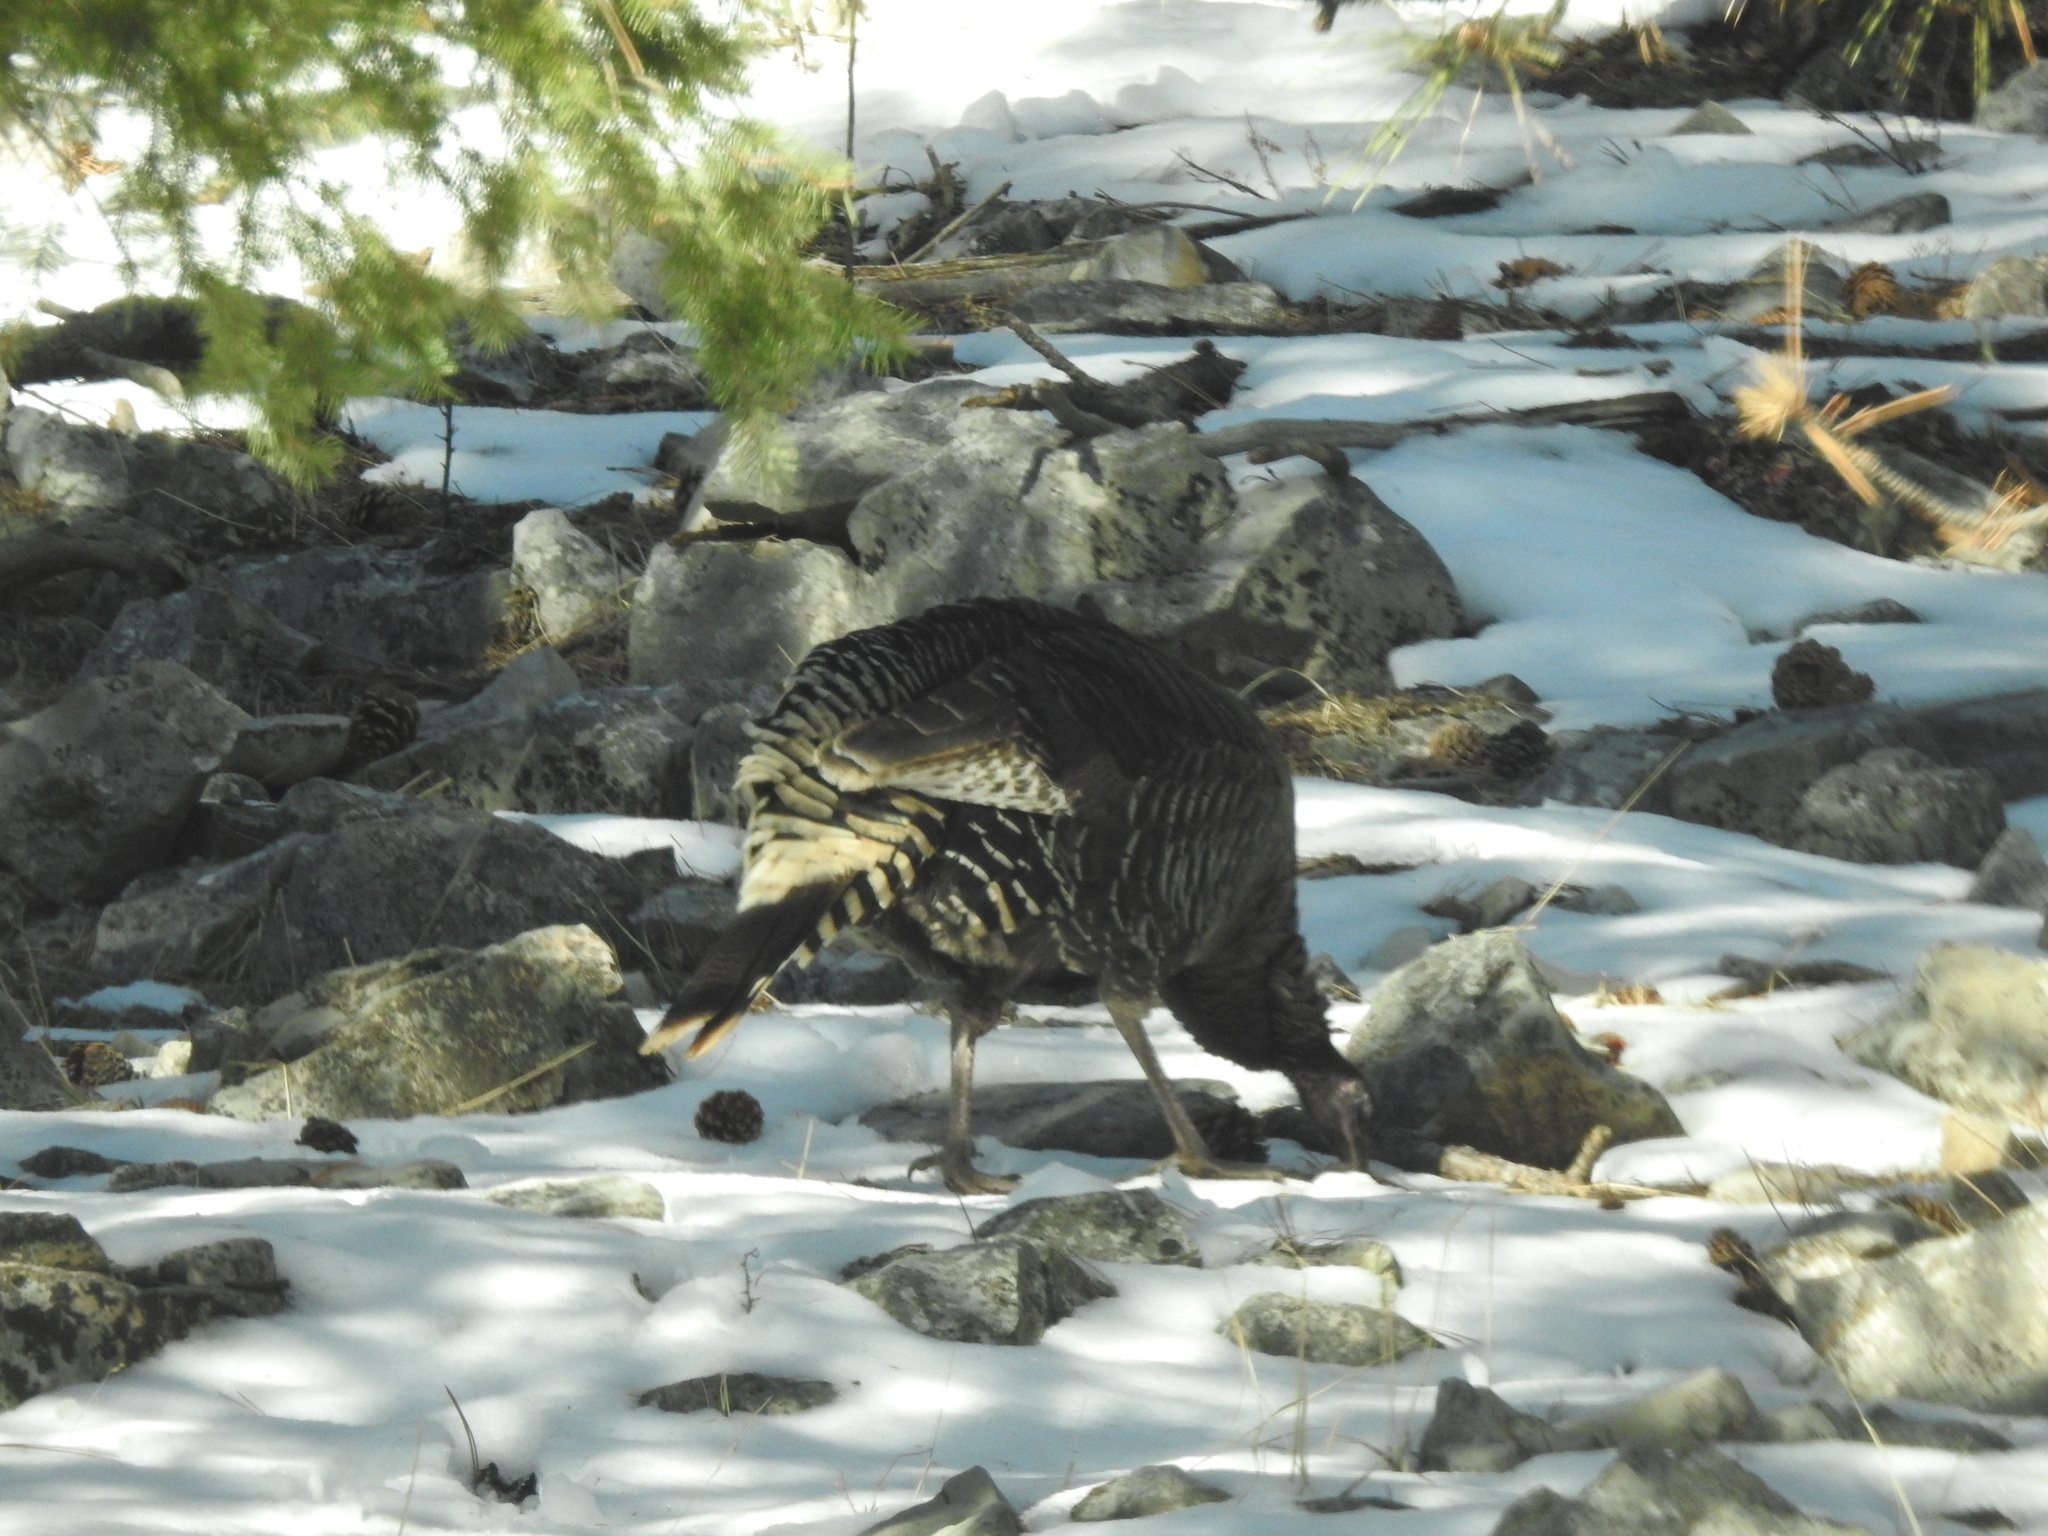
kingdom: Animalia
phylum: Chordata
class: Aves
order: Galliformes
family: Phasianidae
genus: Meleagris
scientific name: Meleagris gallopavo
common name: Wild turkey
